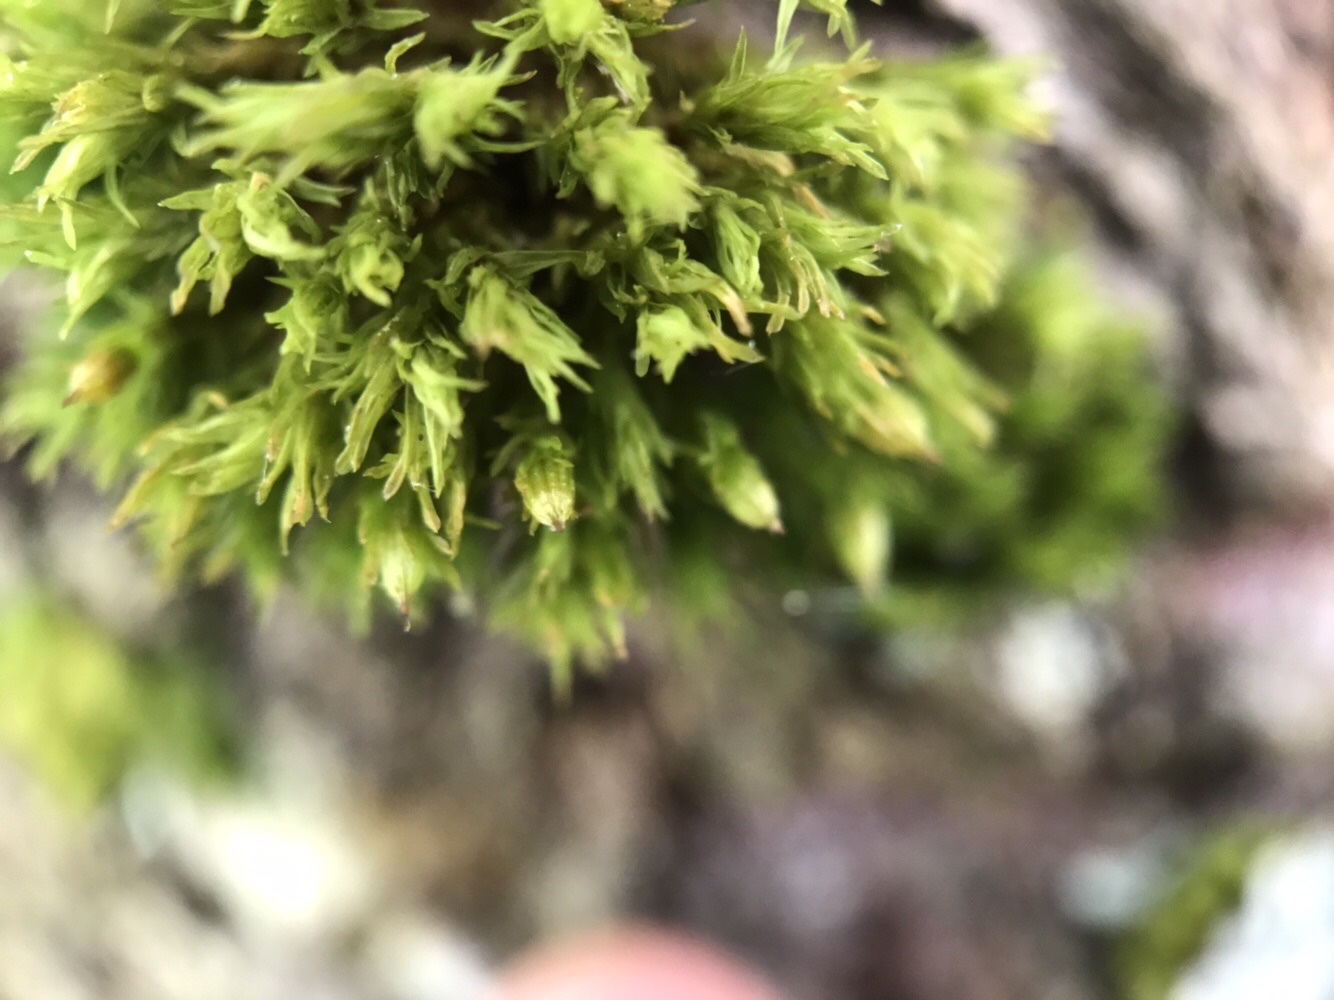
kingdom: Plantae
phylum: Bryophyta
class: Bryopsida
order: Orthotrichales
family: Orthotrichaceae
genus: Orthotrichum
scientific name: Orthotrichum stramineum
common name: Straw bristle-moss
